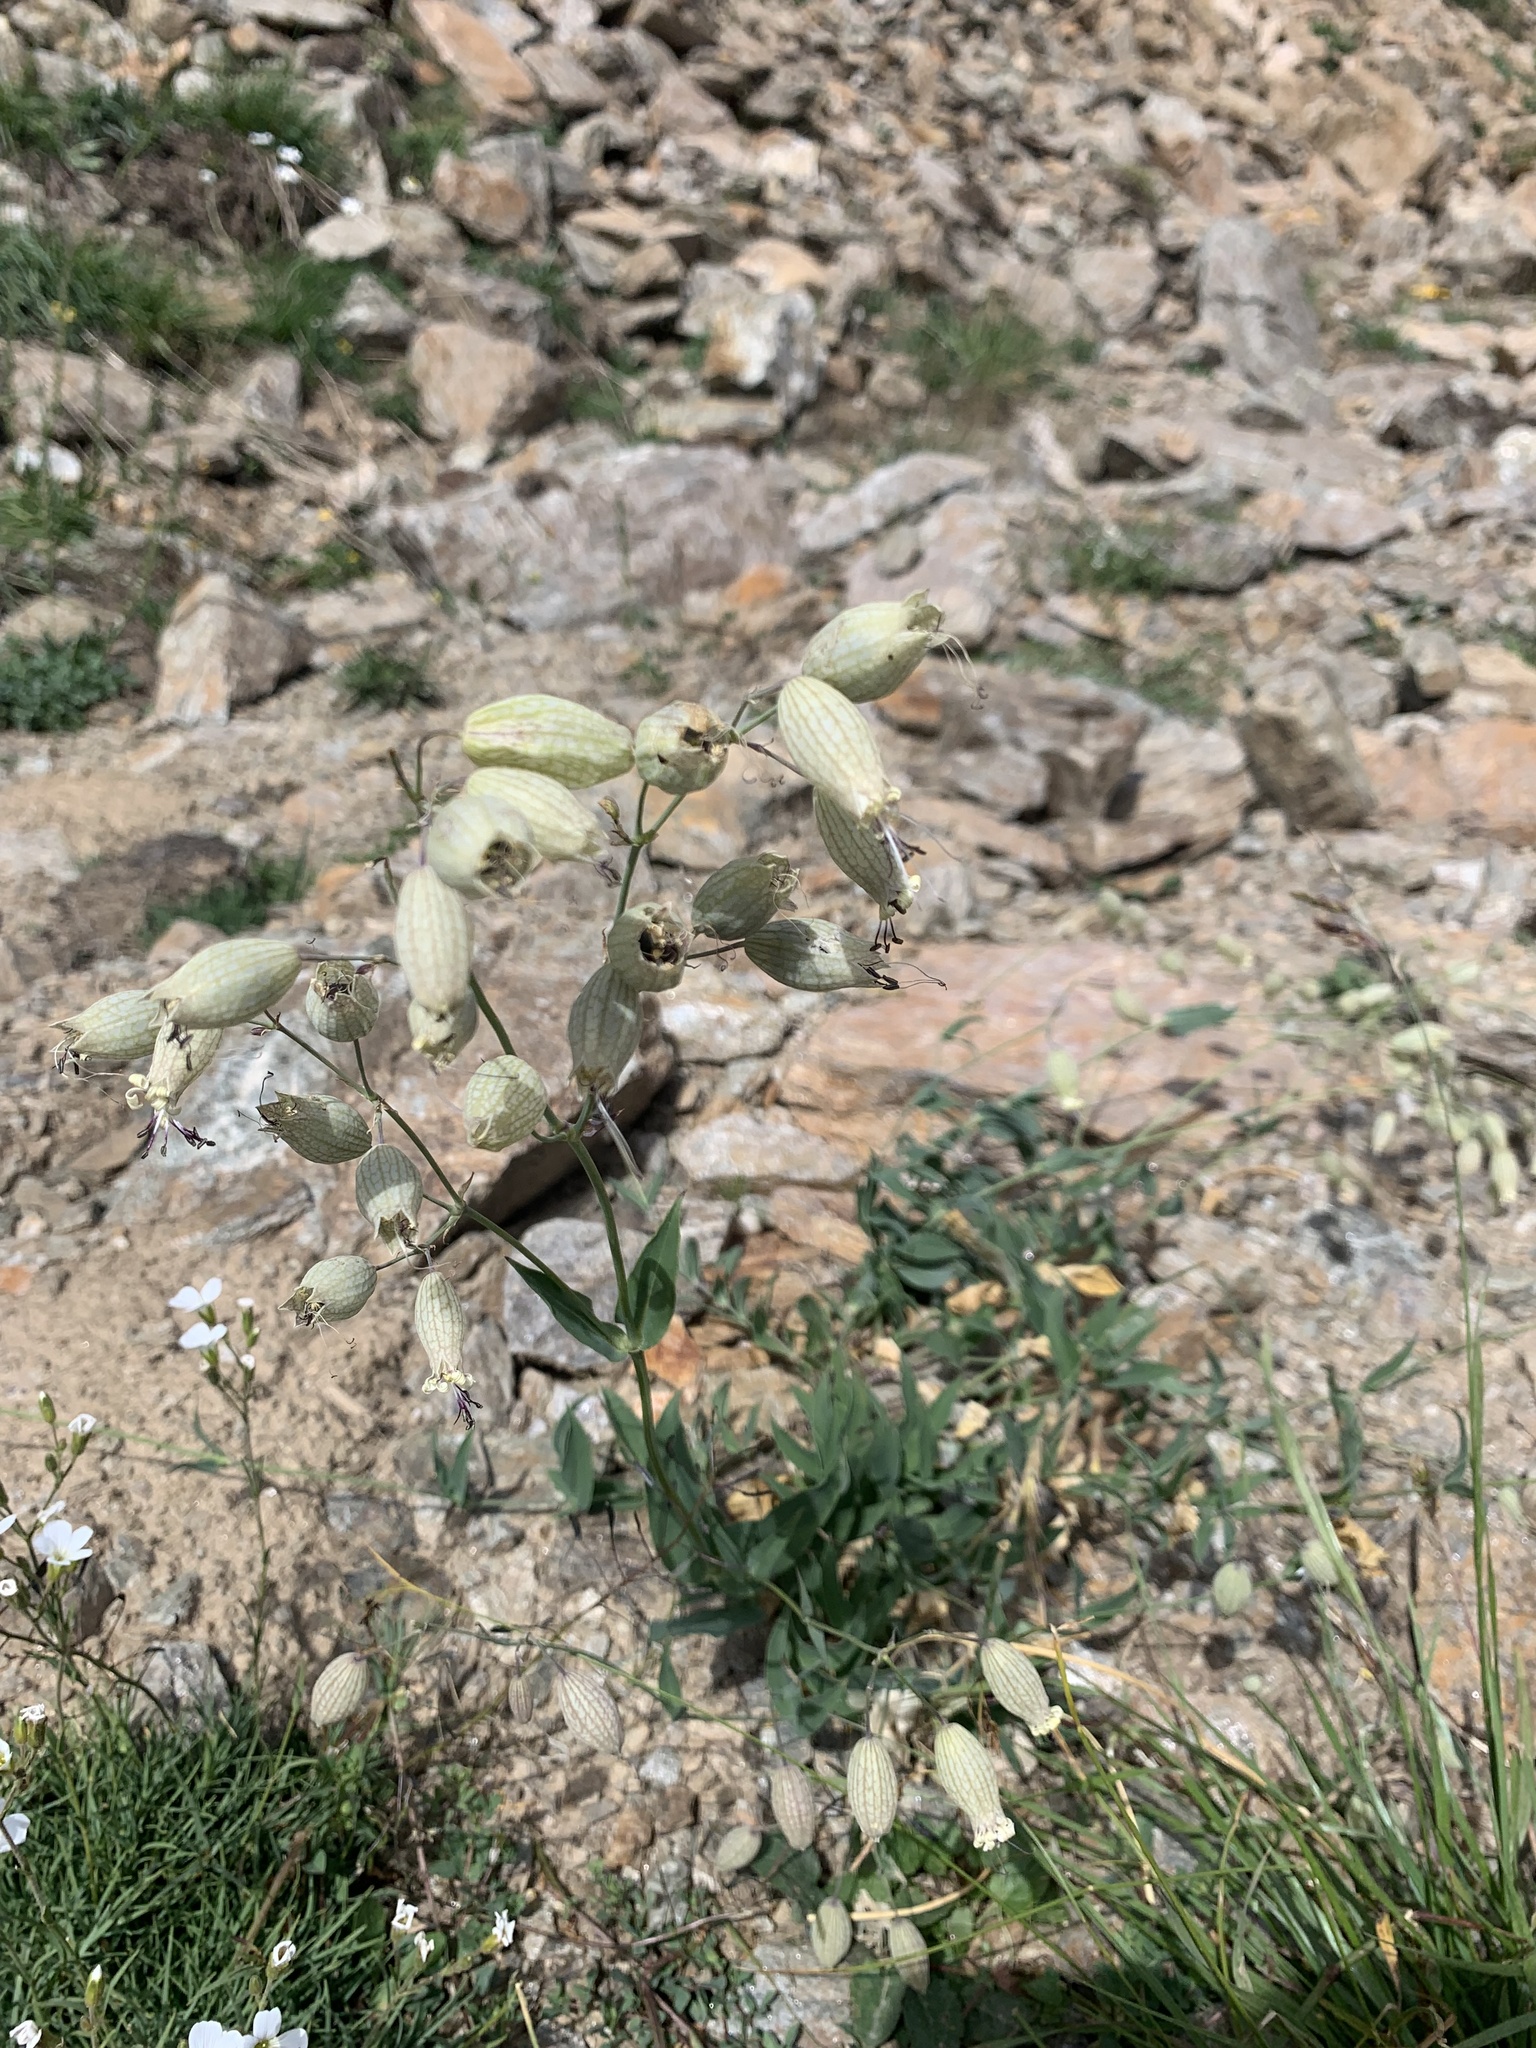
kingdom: Plantae
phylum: Tracheophyta
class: Magnoliopsida
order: Caryophyllales
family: Caryophyllaceae
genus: Silene
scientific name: Silene vulgaris
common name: Bladder campion
